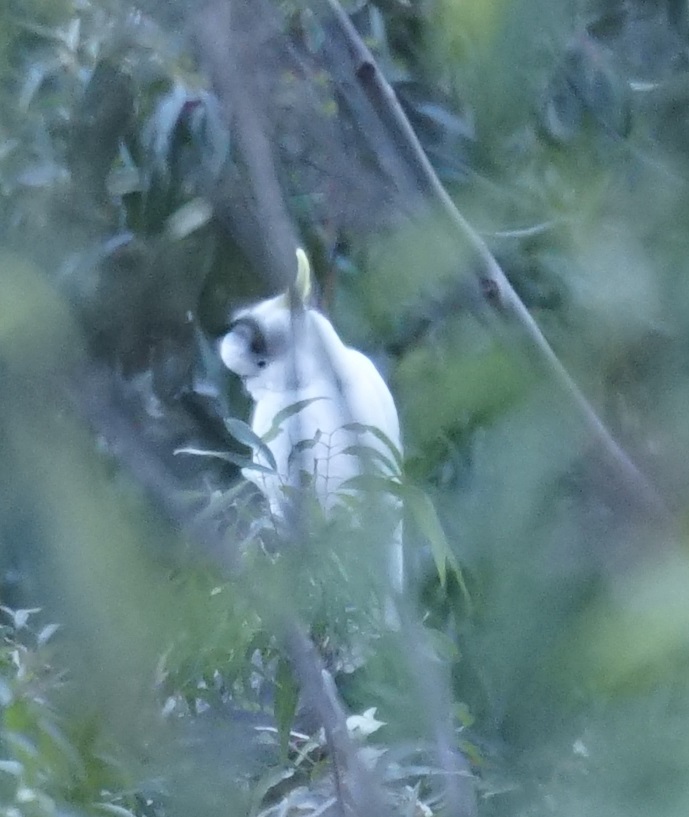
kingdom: Animalia
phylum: Chordata
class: Aves
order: Psittaciformes
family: Psittacidae
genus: Cacatua
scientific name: Cacatua galerita
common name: Sulphur-crested cockatoo
